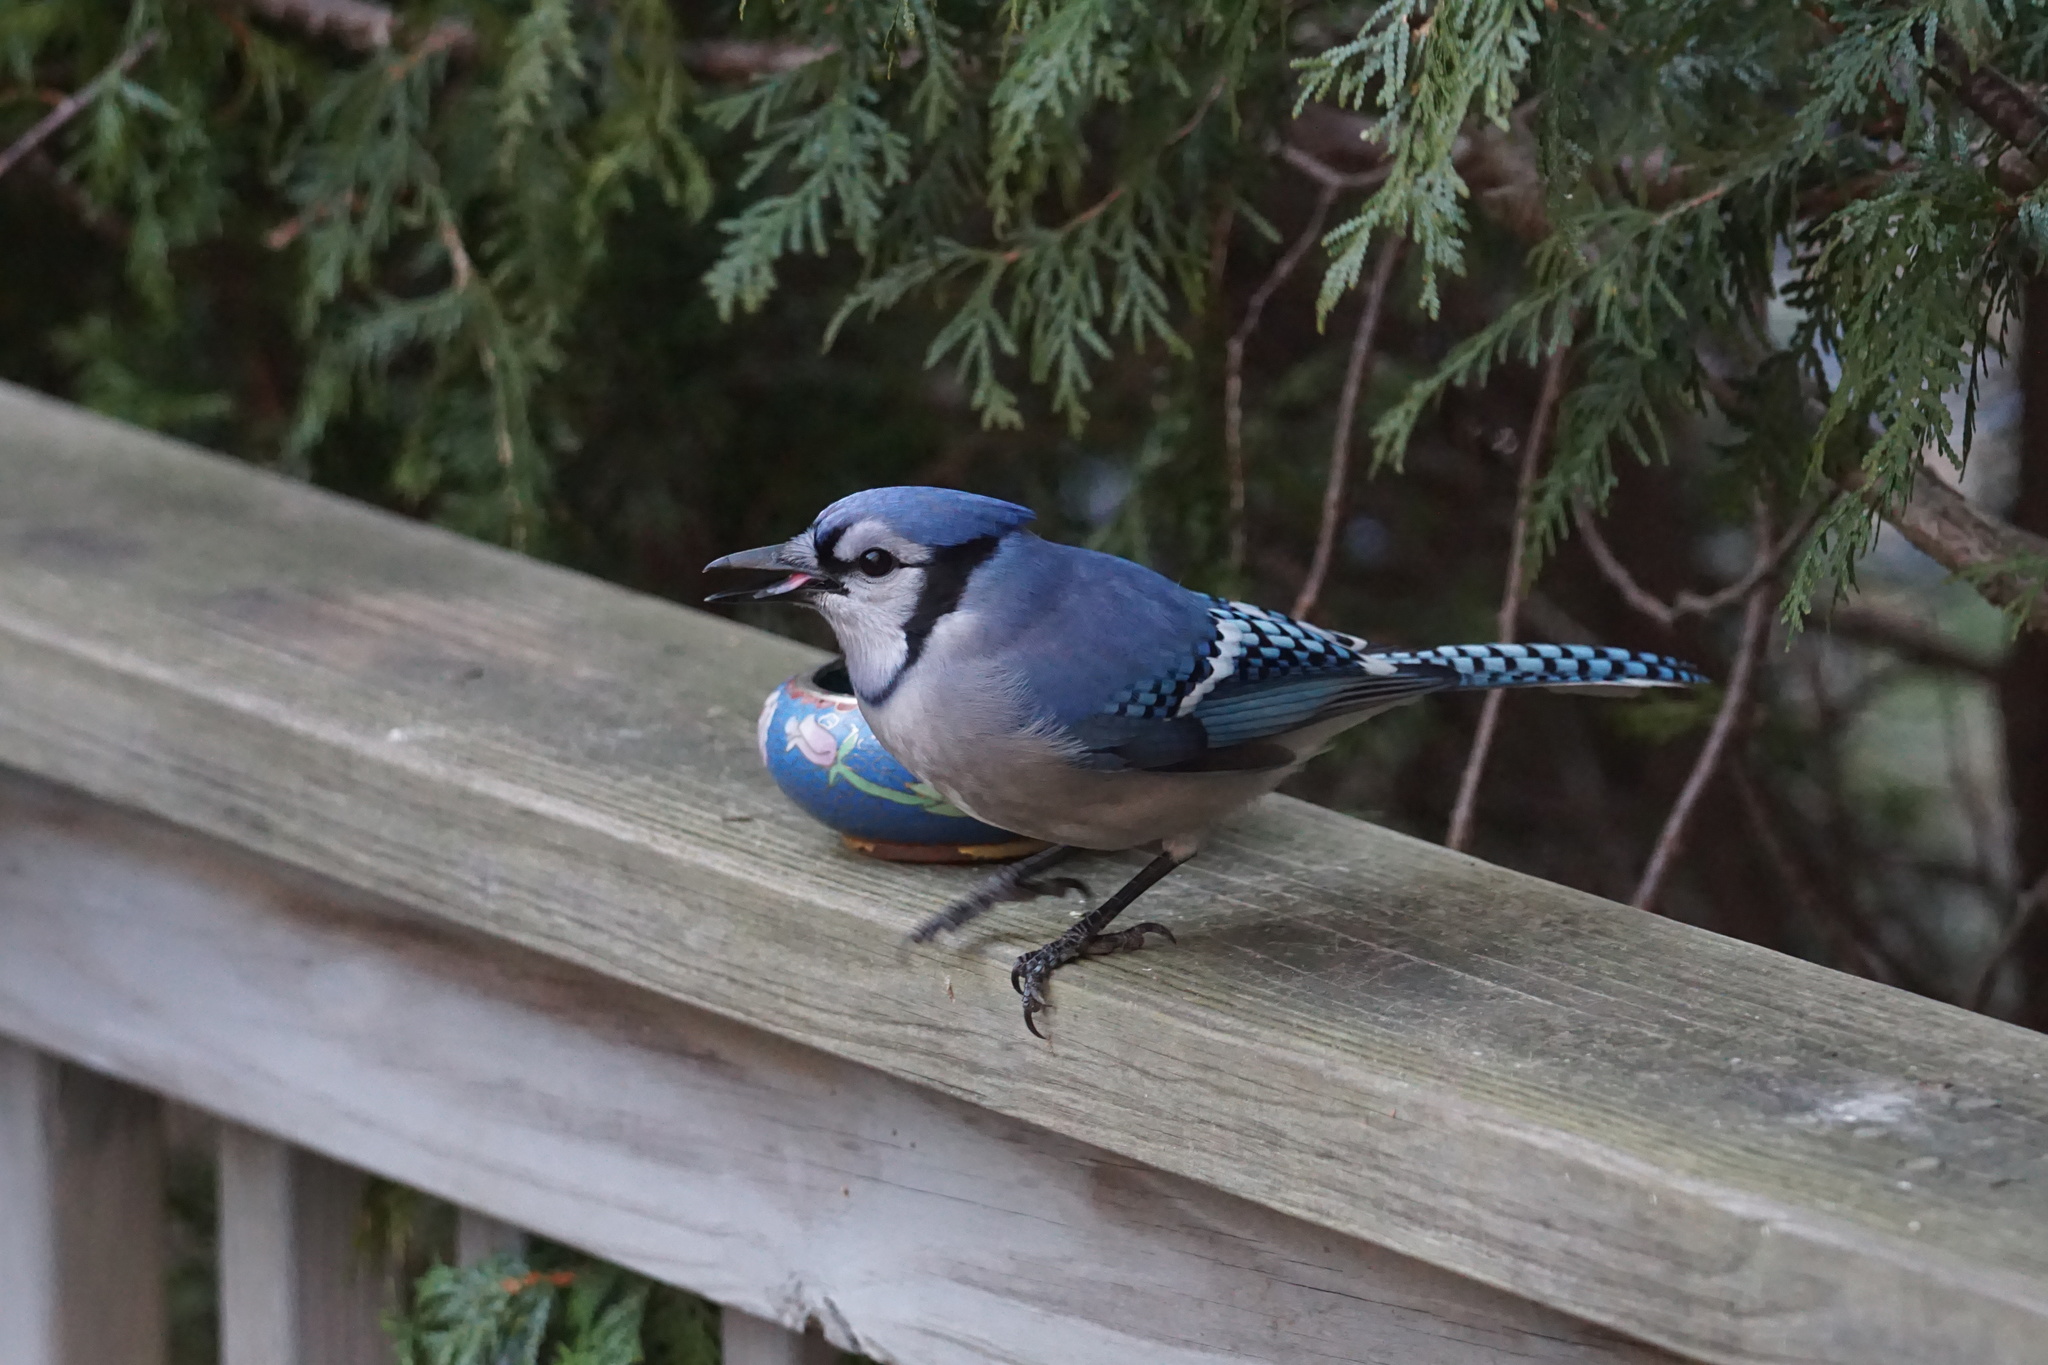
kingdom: Animalia
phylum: Chordata
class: Aves
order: Passeriformes
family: Corvidae
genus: Cyanocitta
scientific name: Cyanocitta cristata
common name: Blue jay
